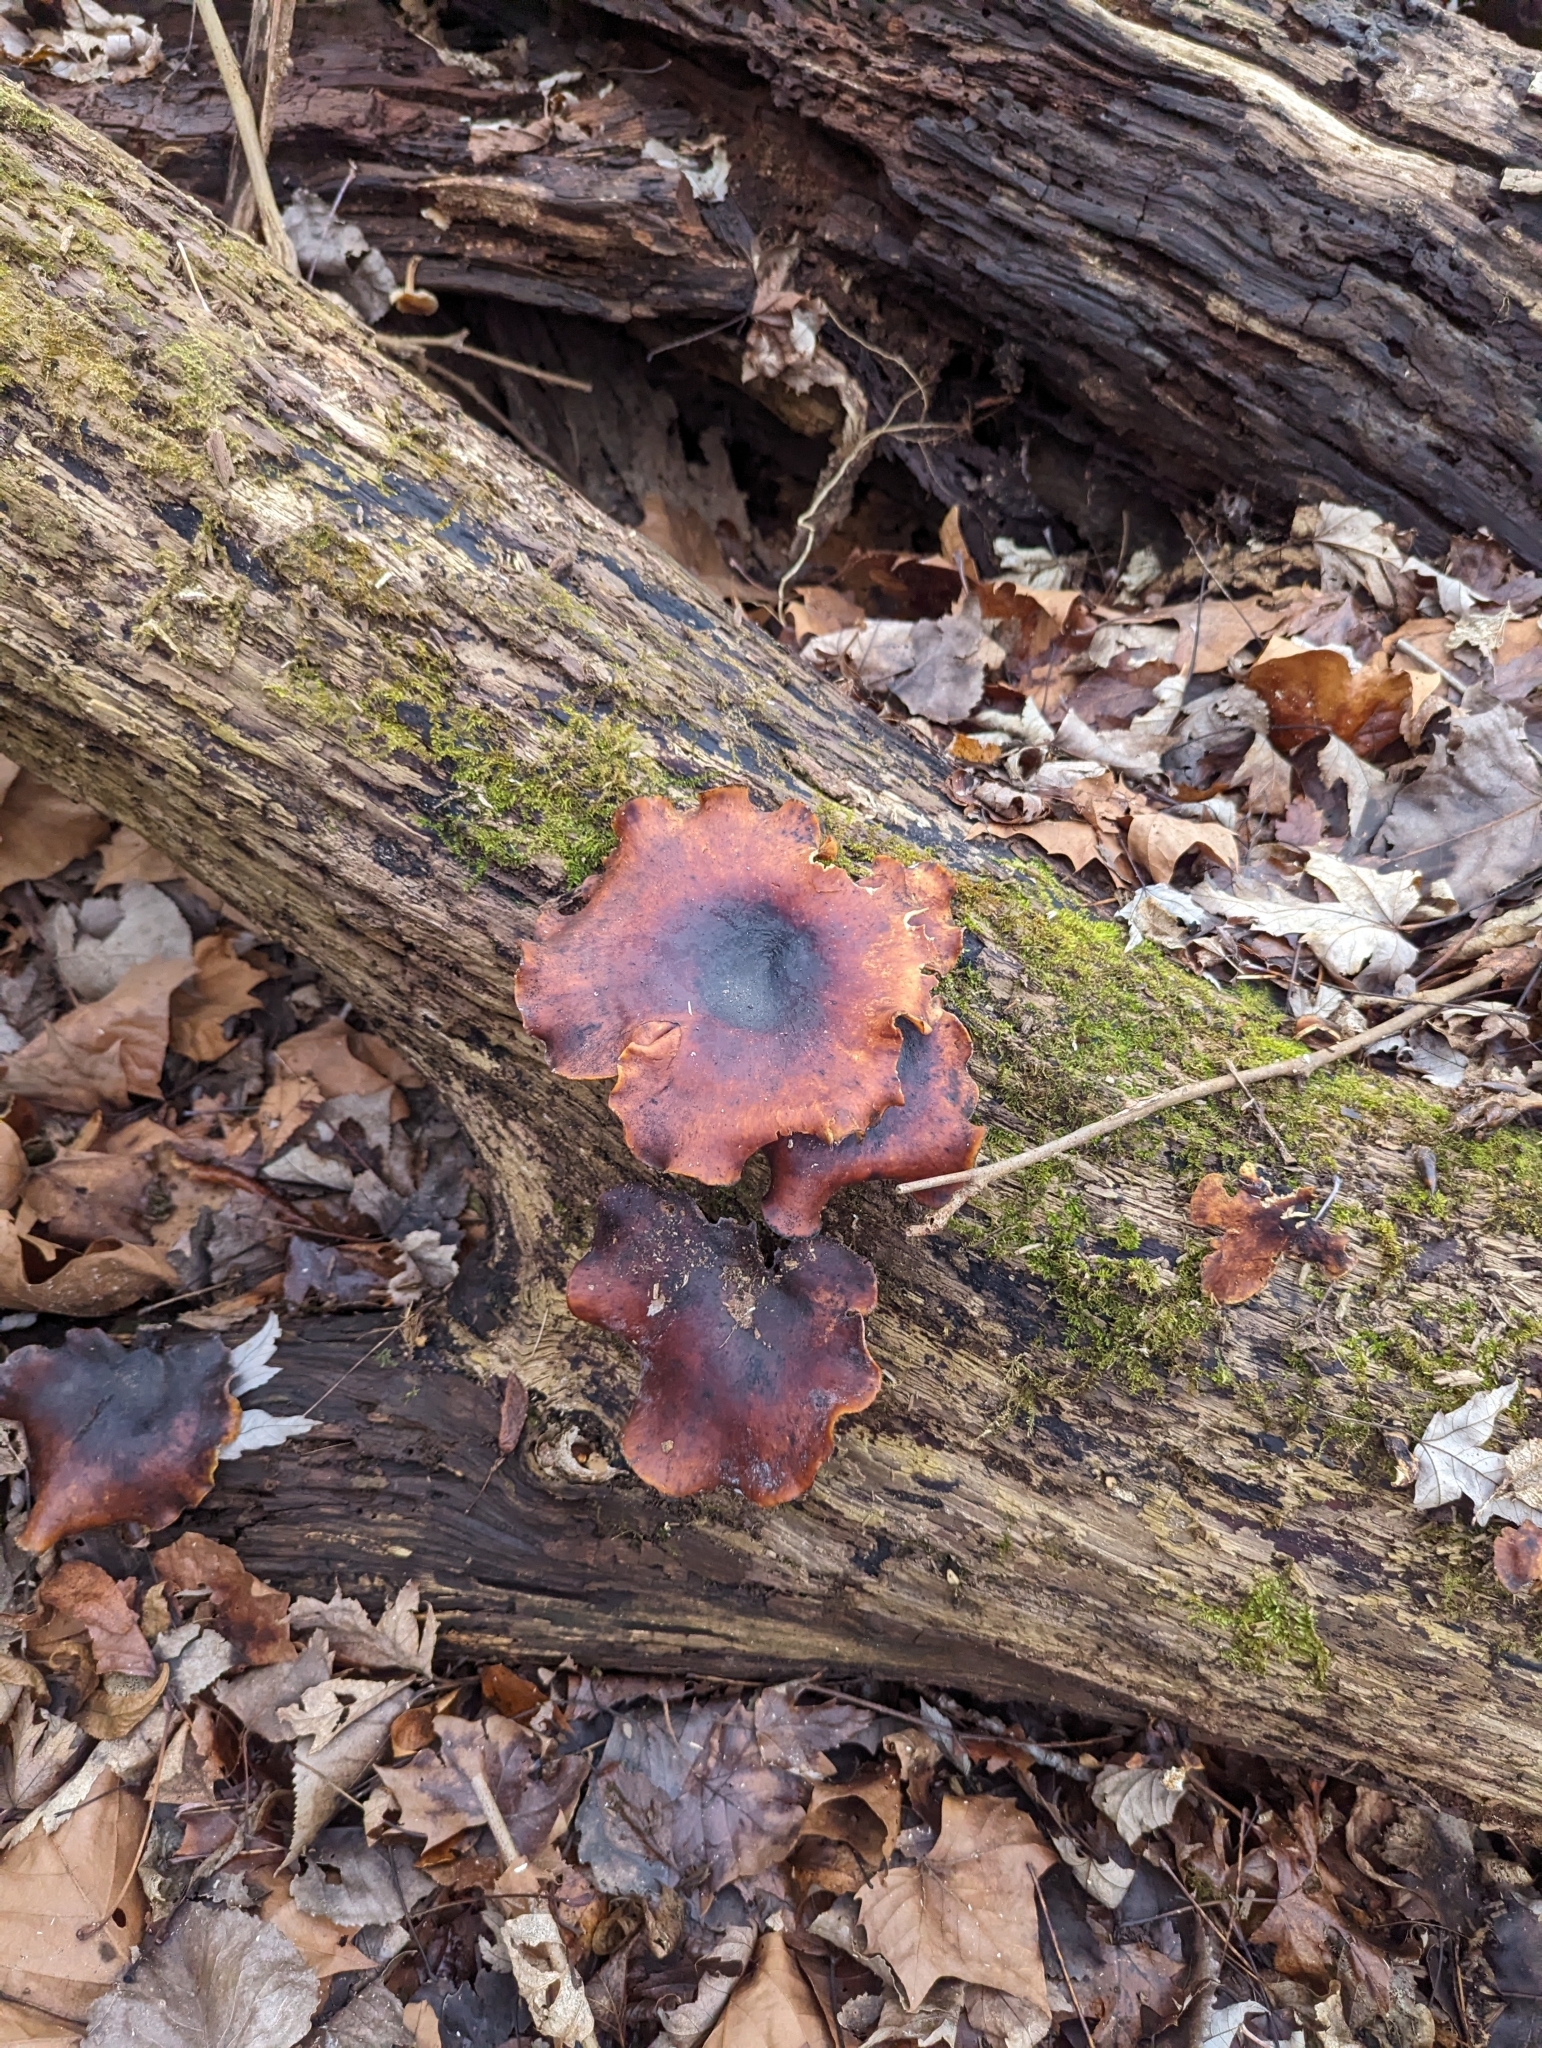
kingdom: Fungi
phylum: Basidiomycota
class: Agaricomycetes
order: Polyporales
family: Polyporaceae
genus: Picipes
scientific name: Picipes badius
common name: Bay polypore
